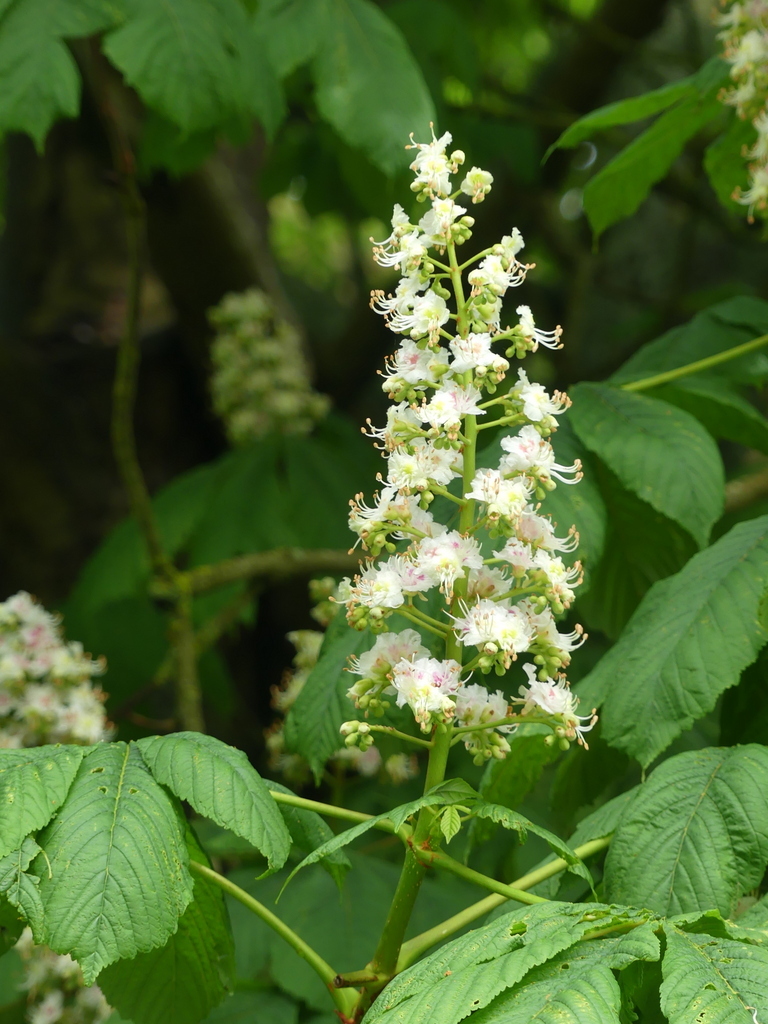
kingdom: Plantae
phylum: Tracheophyta
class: Magnoliopsida
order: Sapindales
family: Sapindaceae
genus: Aesculus
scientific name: Aesculus hippocastanum
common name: Horse-chestnut
